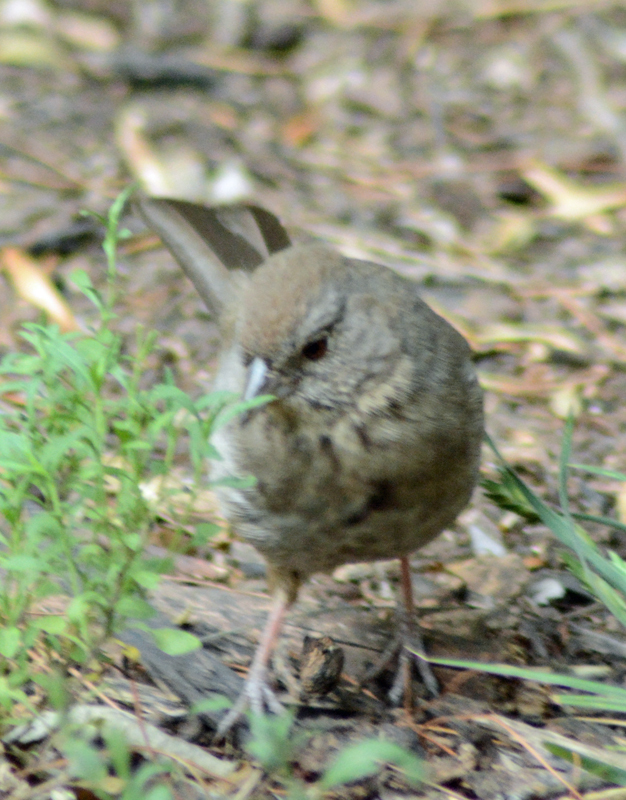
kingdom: Animalia
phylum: Chordata
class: Aves
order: Passeriformes
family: Passerellidae
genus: Melozone
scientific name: Melozone fusca
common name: Canyon towhee
